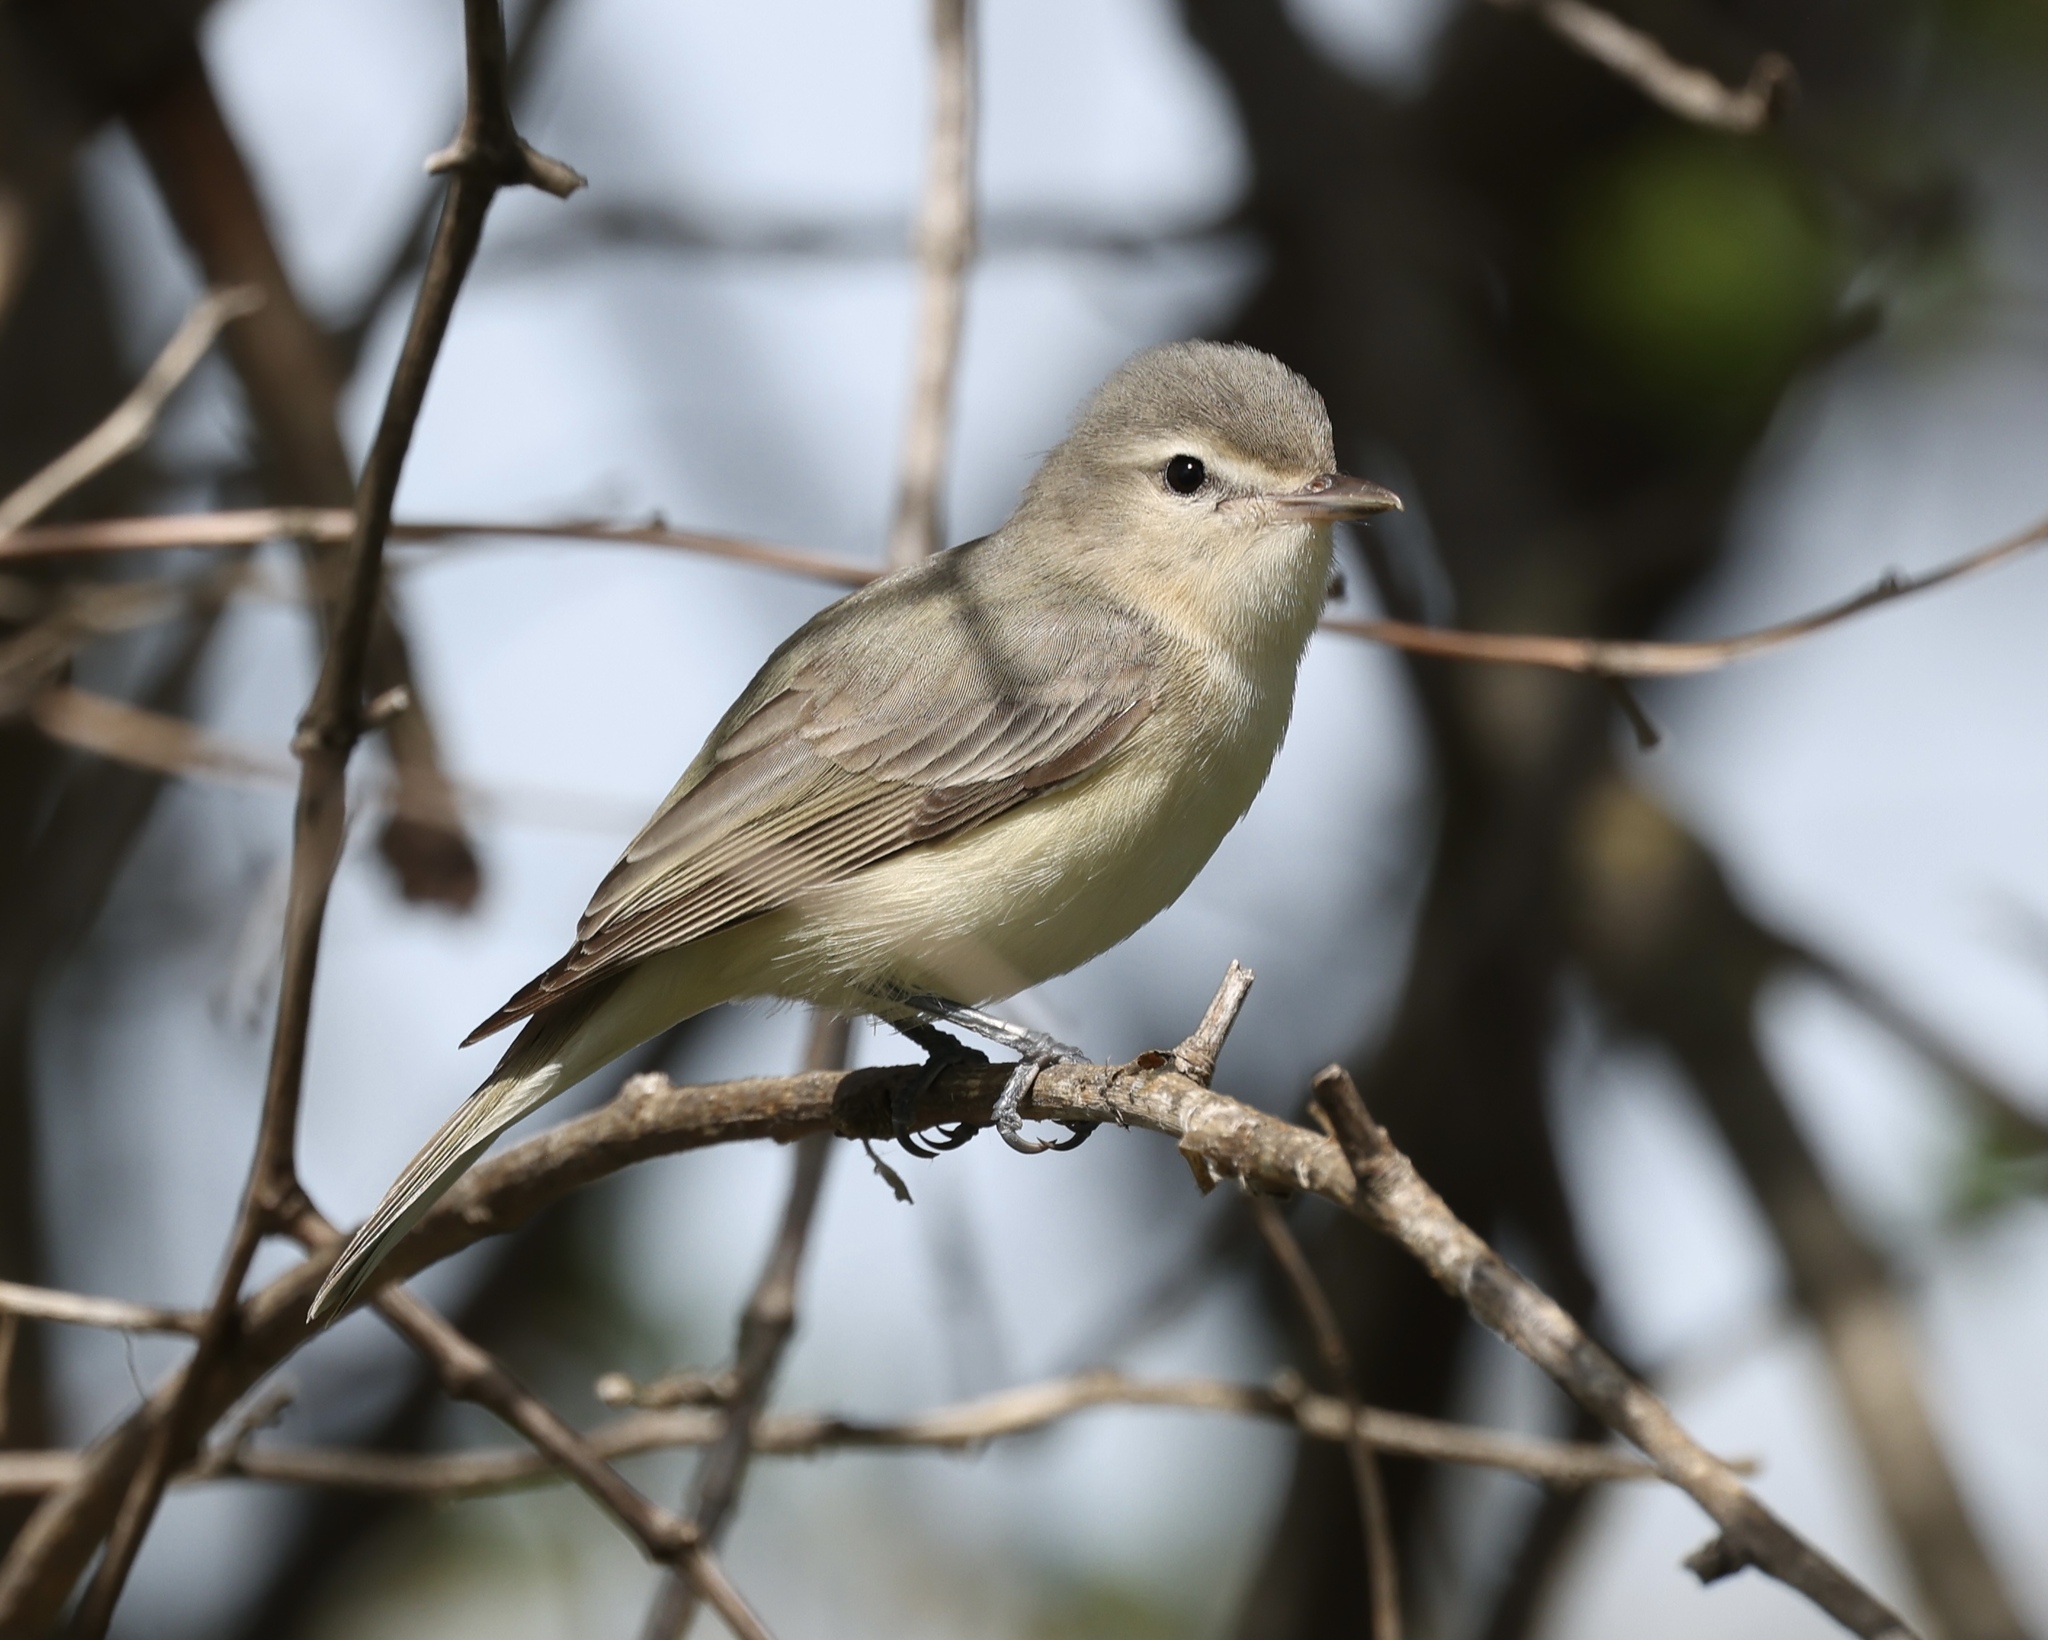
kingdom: Animalia
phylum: Chordata
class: Aves
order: Passeriformes
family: Vireonidae
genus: Vireo
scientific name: Vireo gilvus
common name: Warbling vireo
